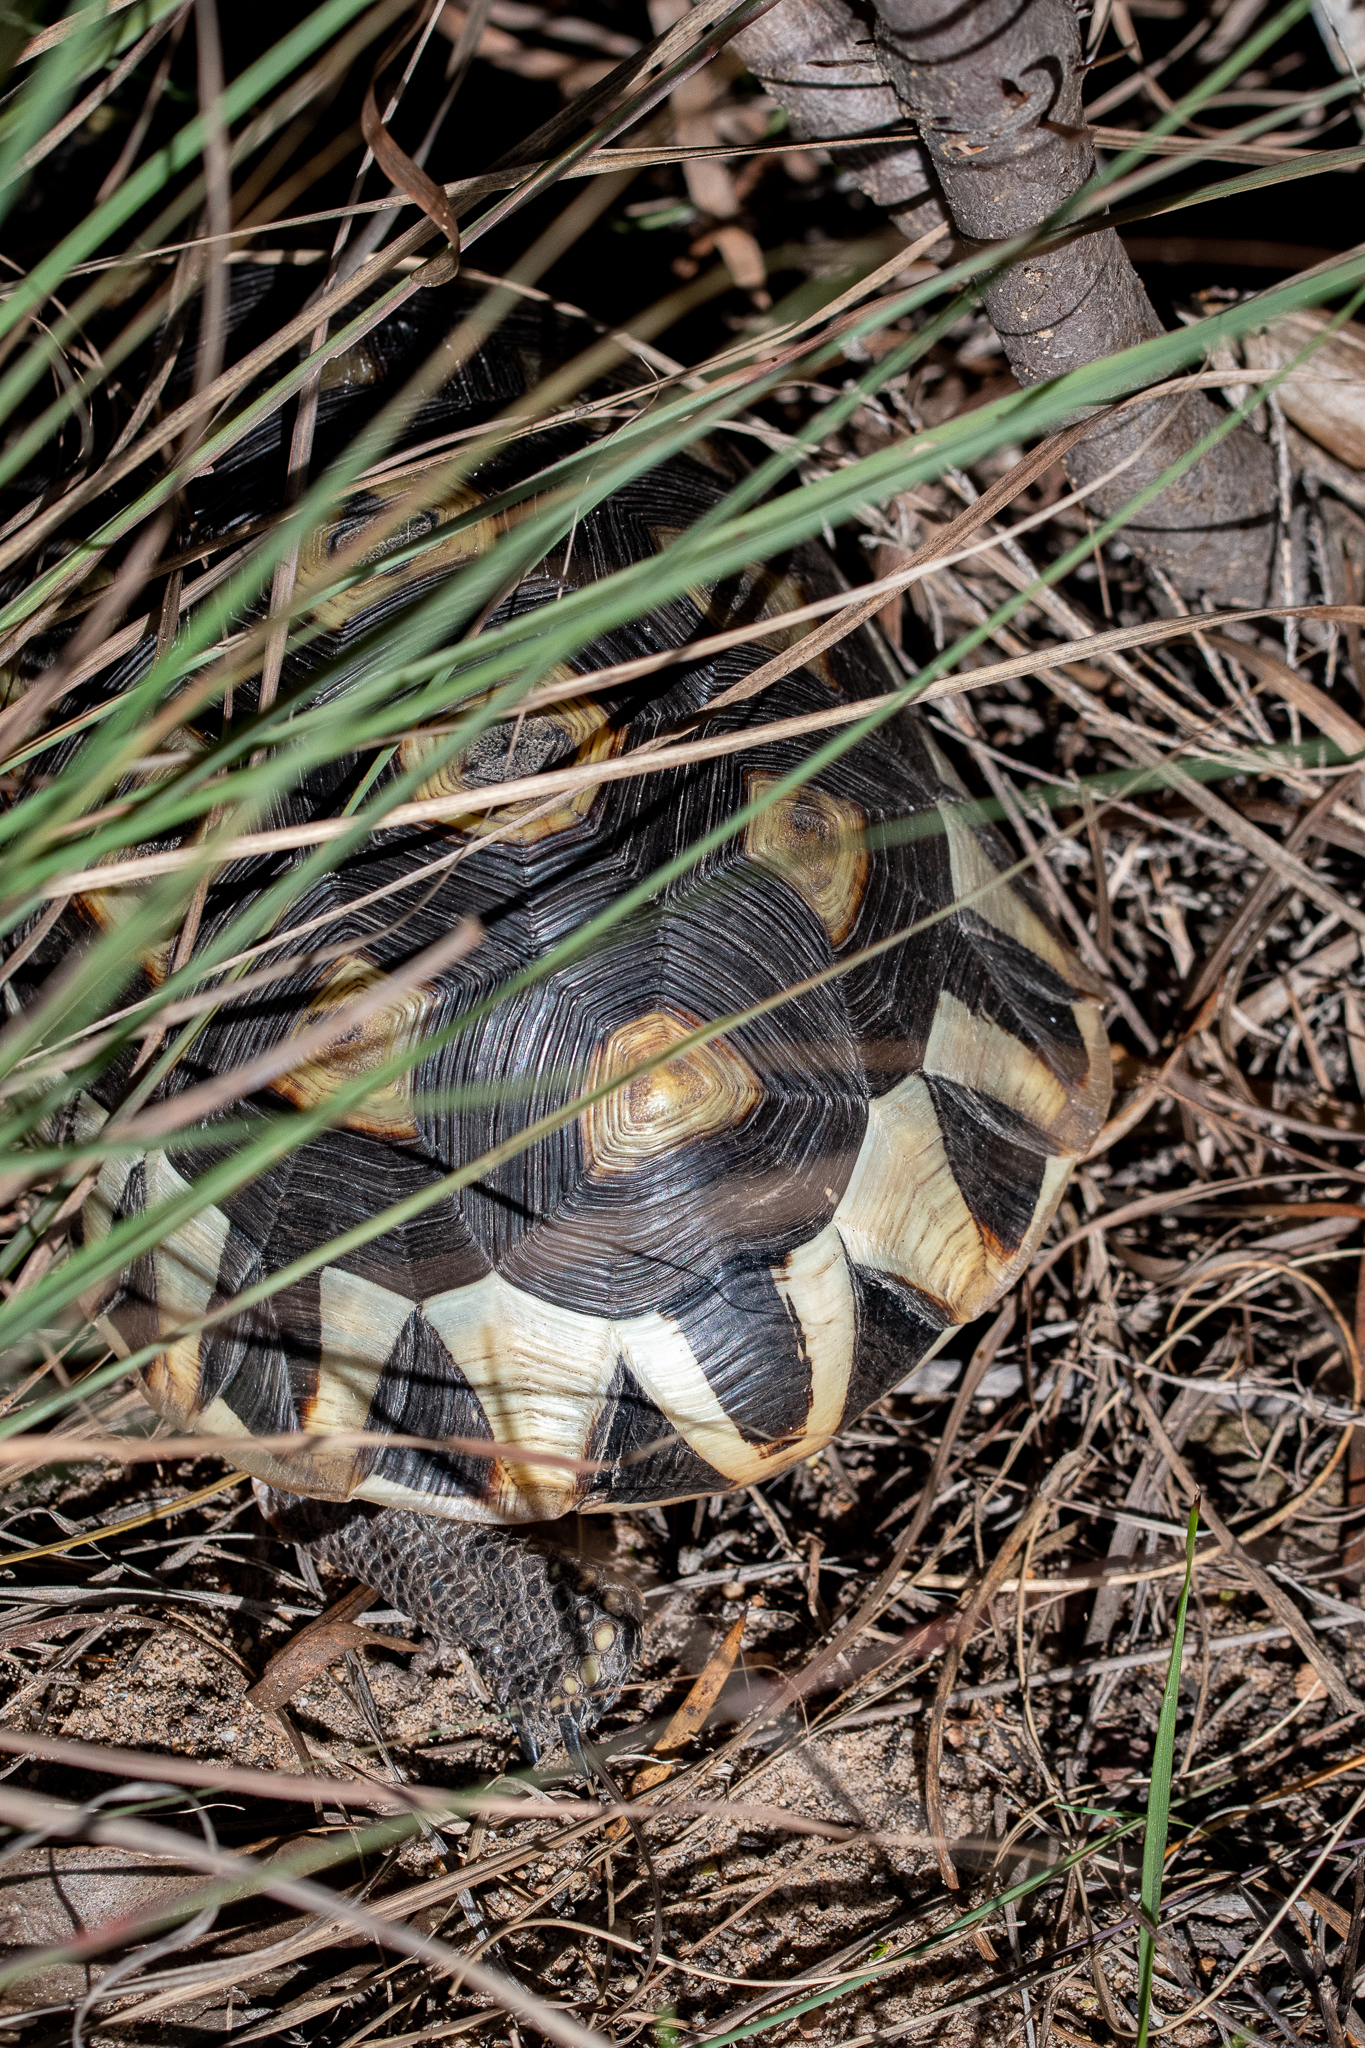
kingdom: Animalia
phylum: Chordata
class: Testudines
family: Testudinidae
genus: Chersina
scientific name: Chersina angulata
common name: South african bowsprit tortoise
